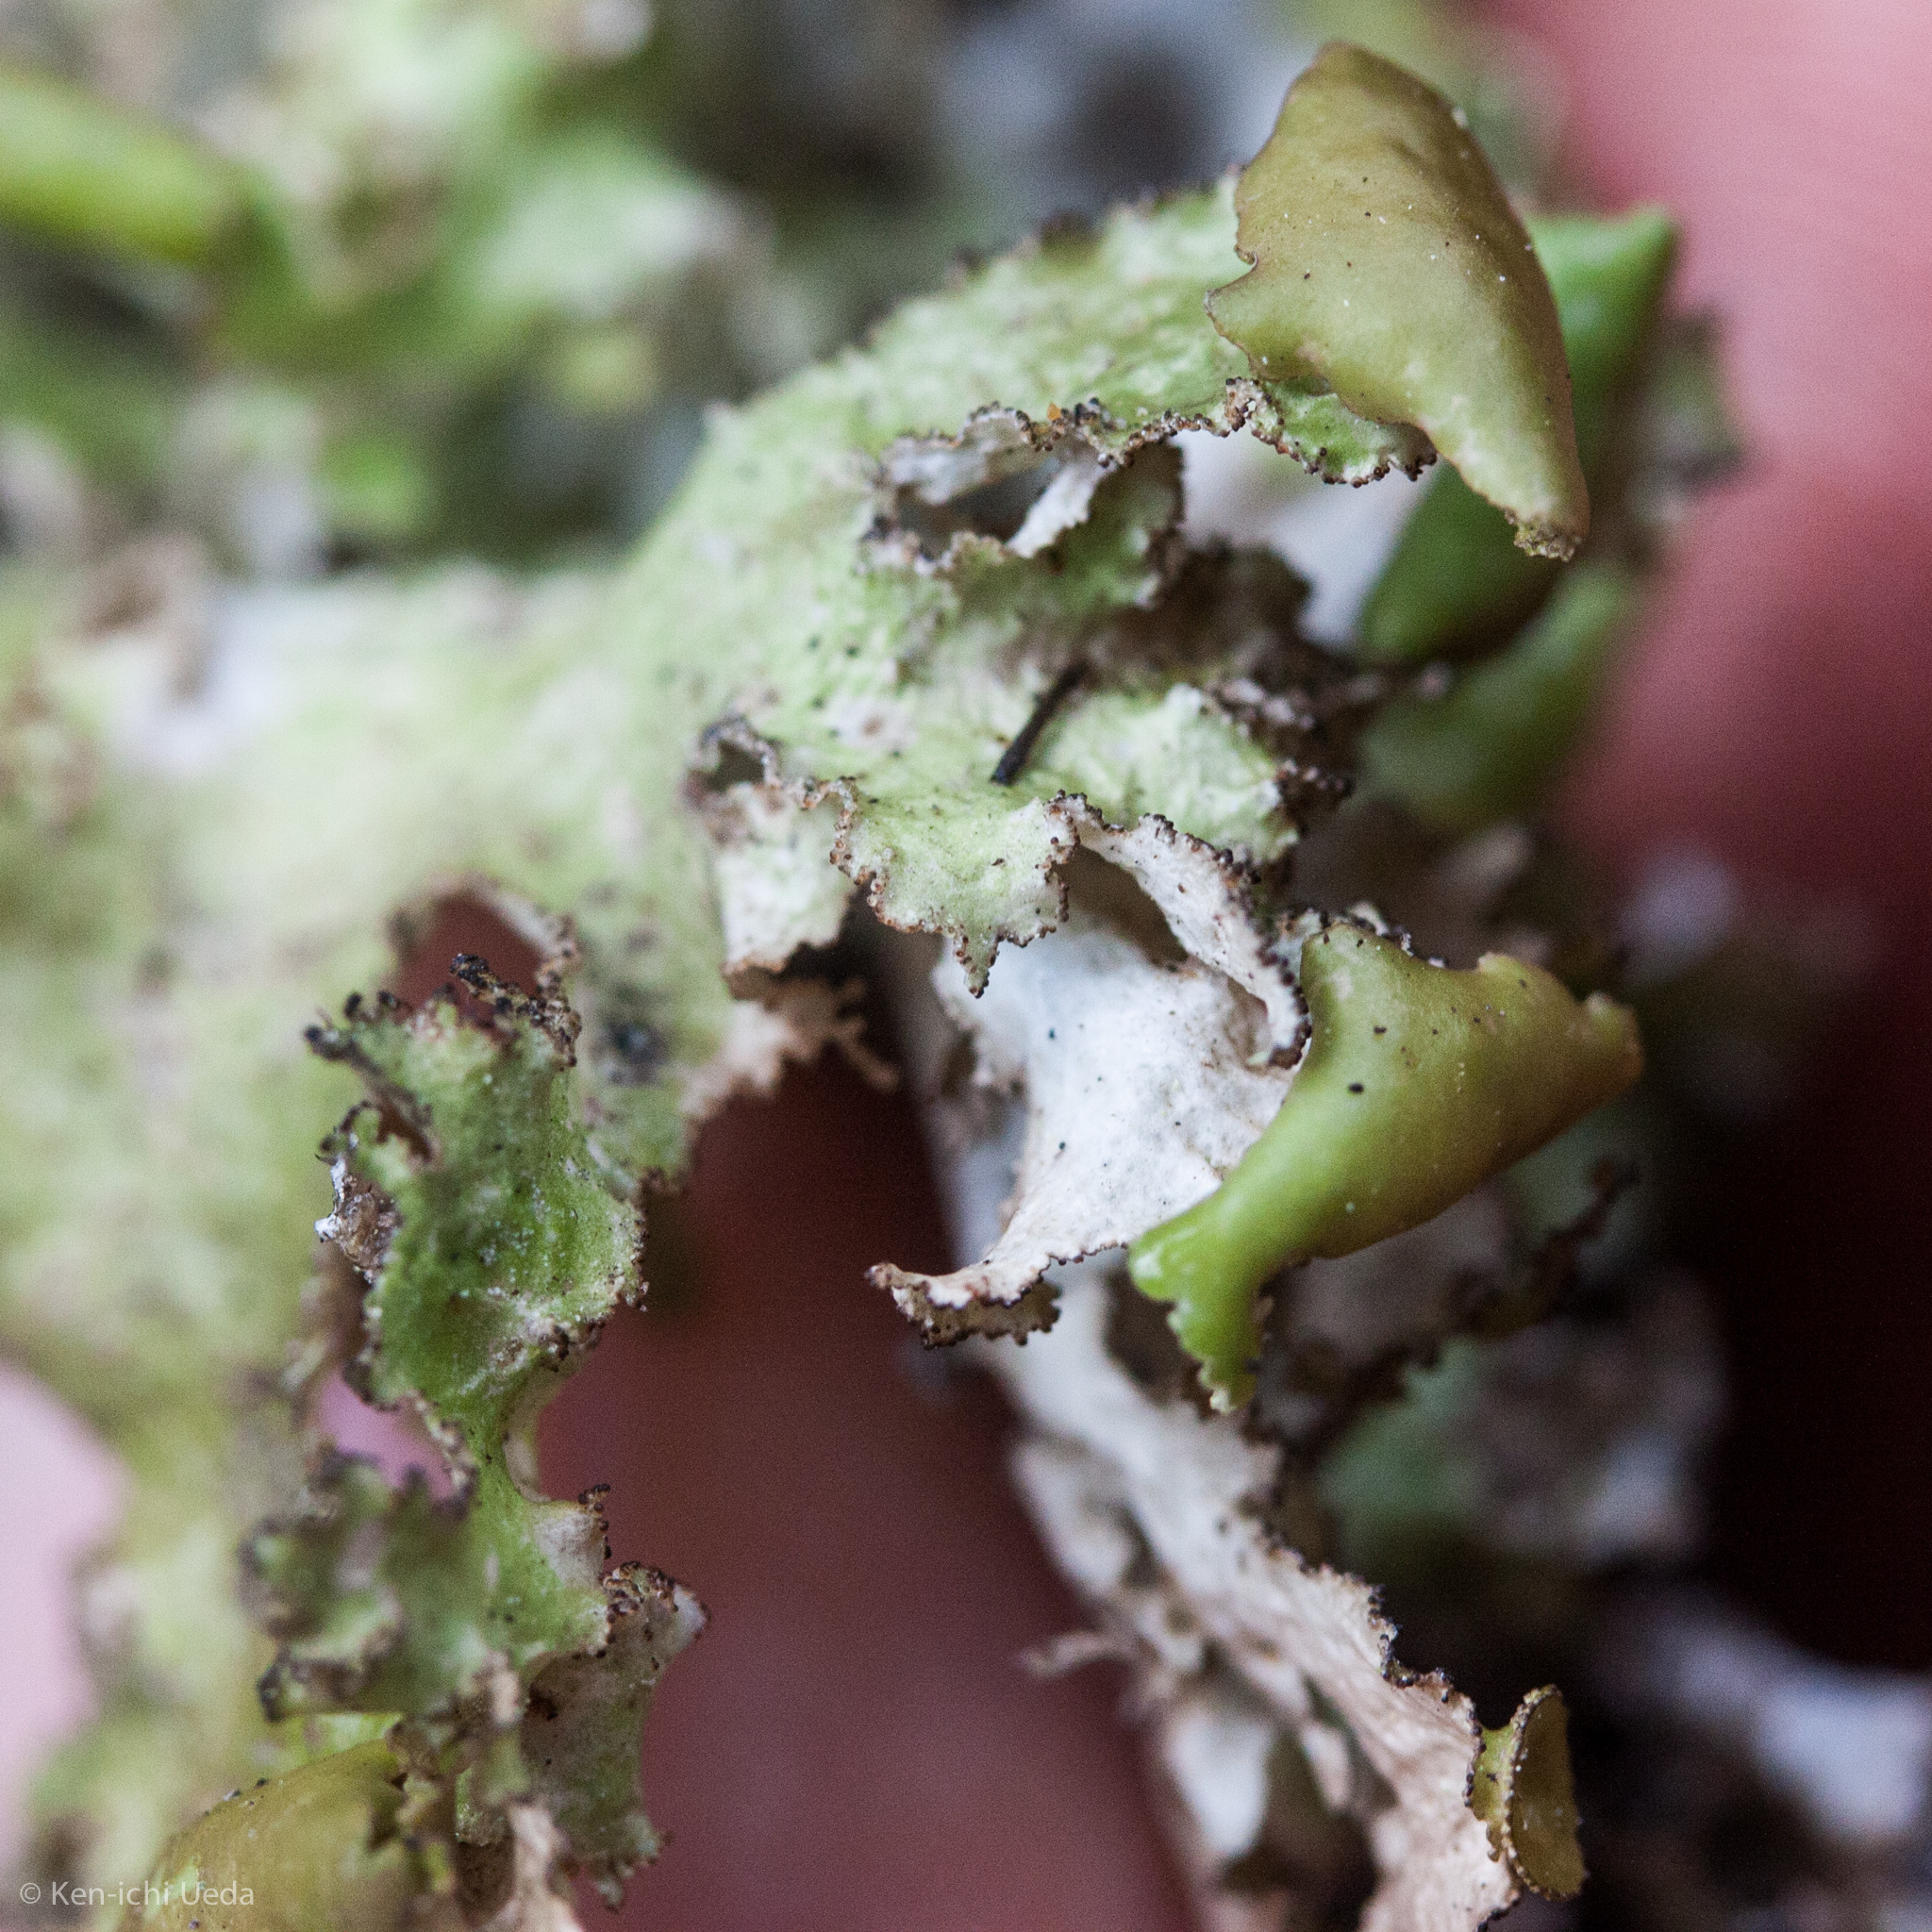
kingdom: Fungi
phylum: Ascomycota
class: Lecanoromycetes
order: Lecanorales
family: Parmeliaceae
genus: Nephromopsis
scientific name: Nephromopsis orbata
